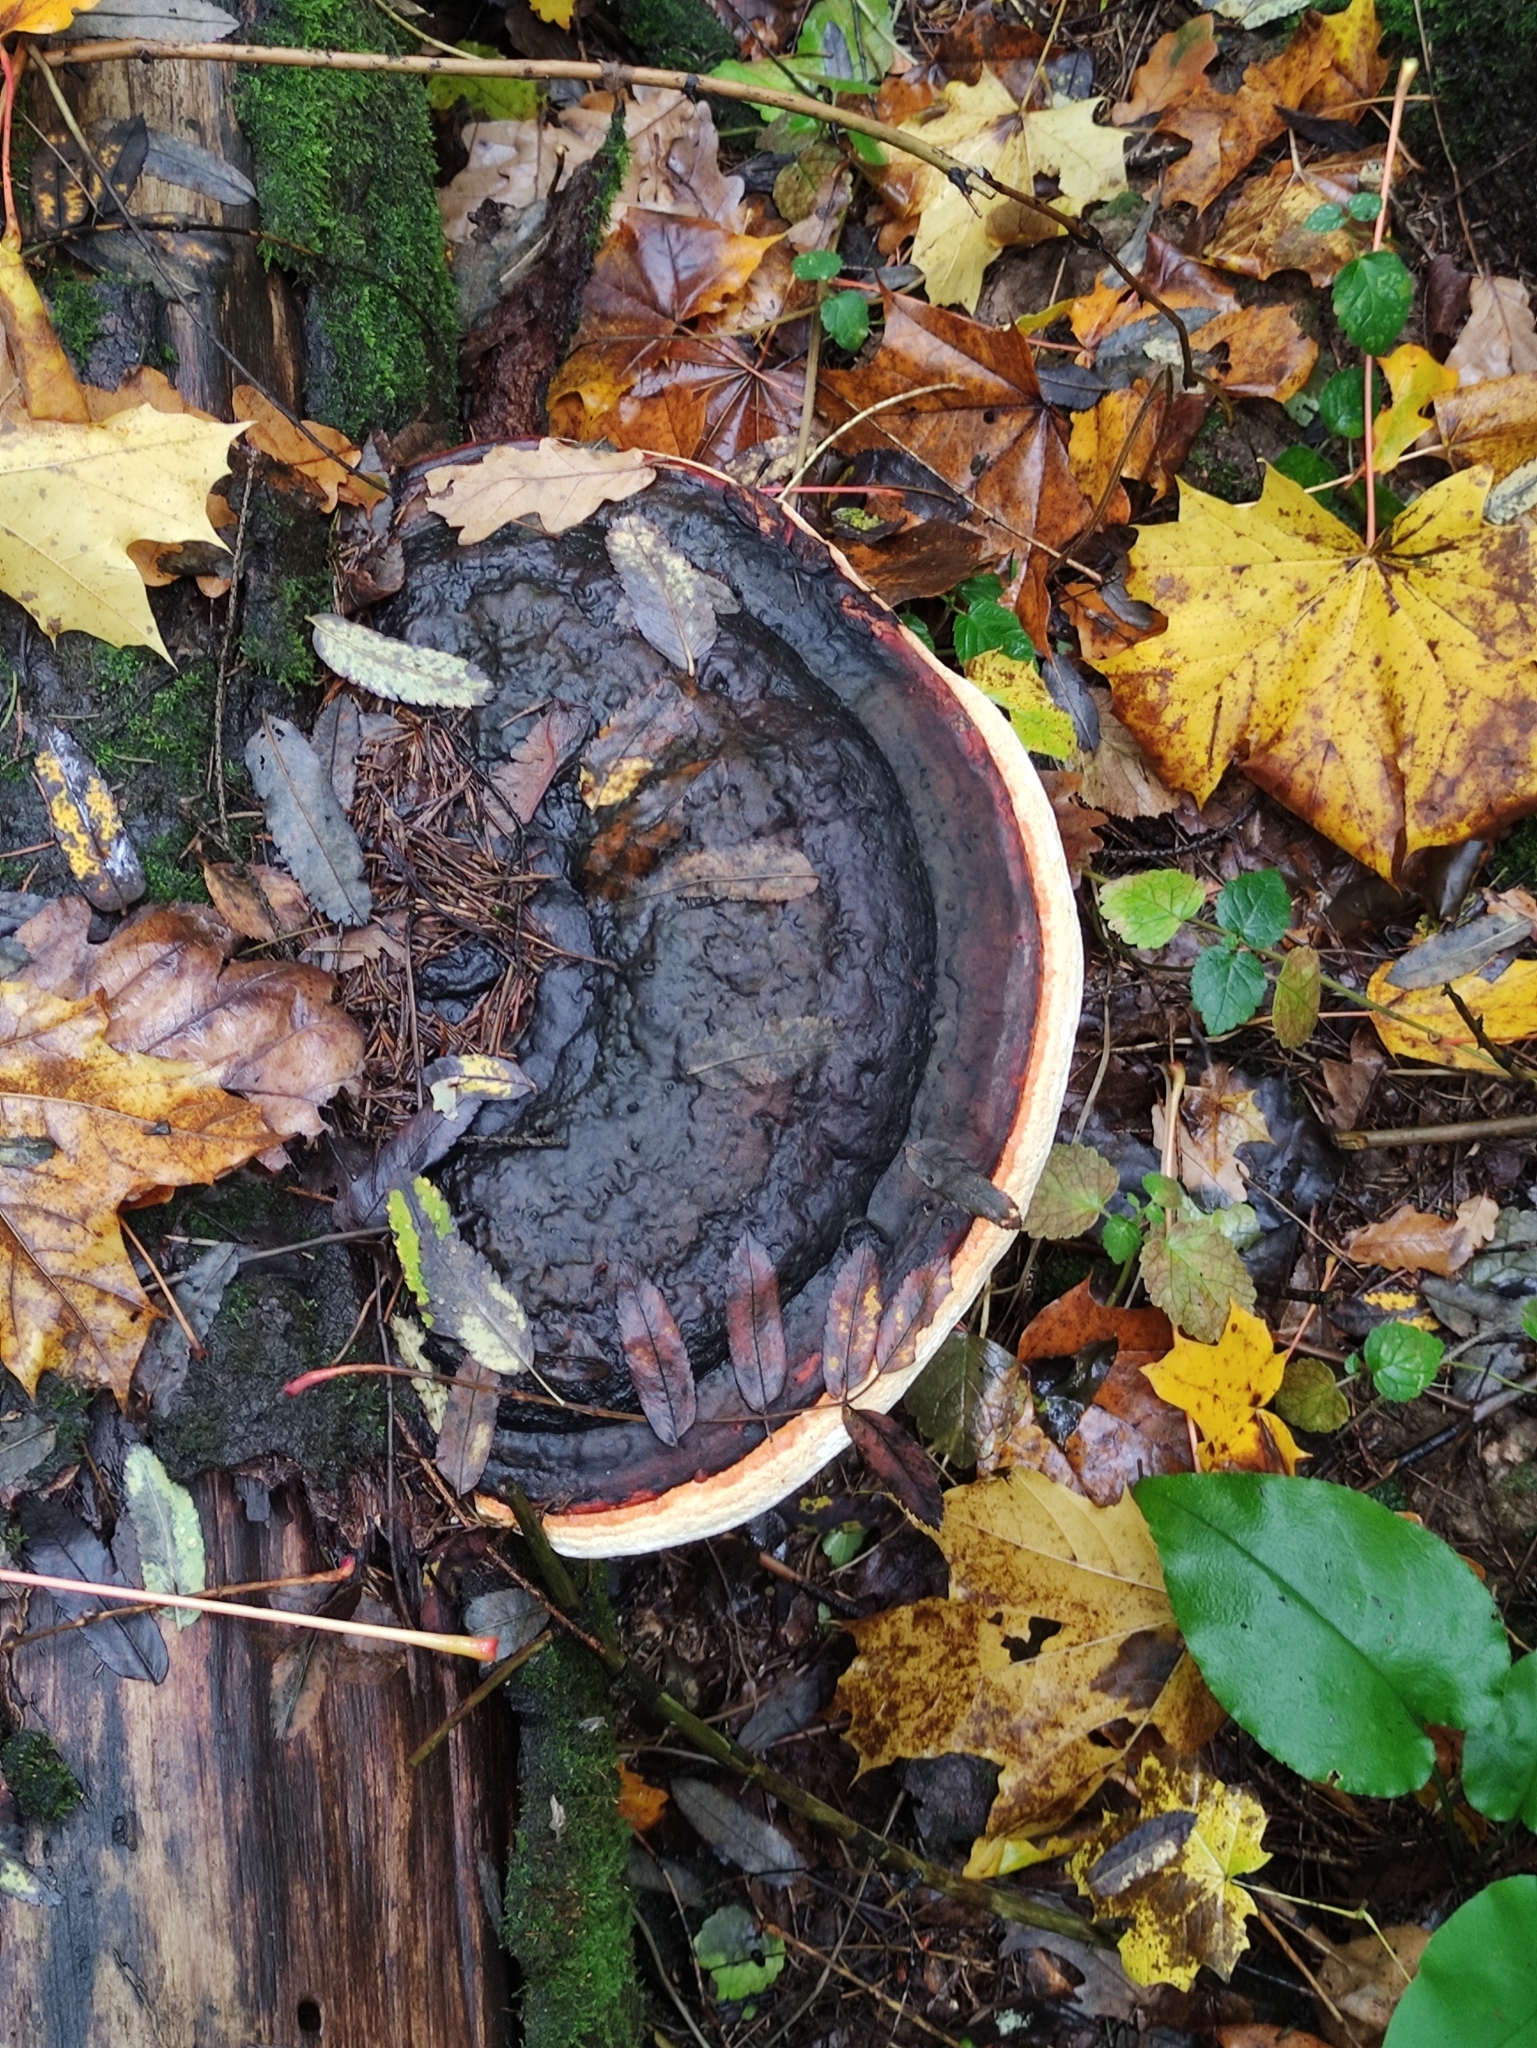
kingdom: Fungi
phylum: Basidiomycota
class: Agaricomycetes
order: Polyporales
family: Fomitopsidaceae
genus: Fomitopsis
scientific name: Fomitopsis pinicola
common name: Red-belted bracket
